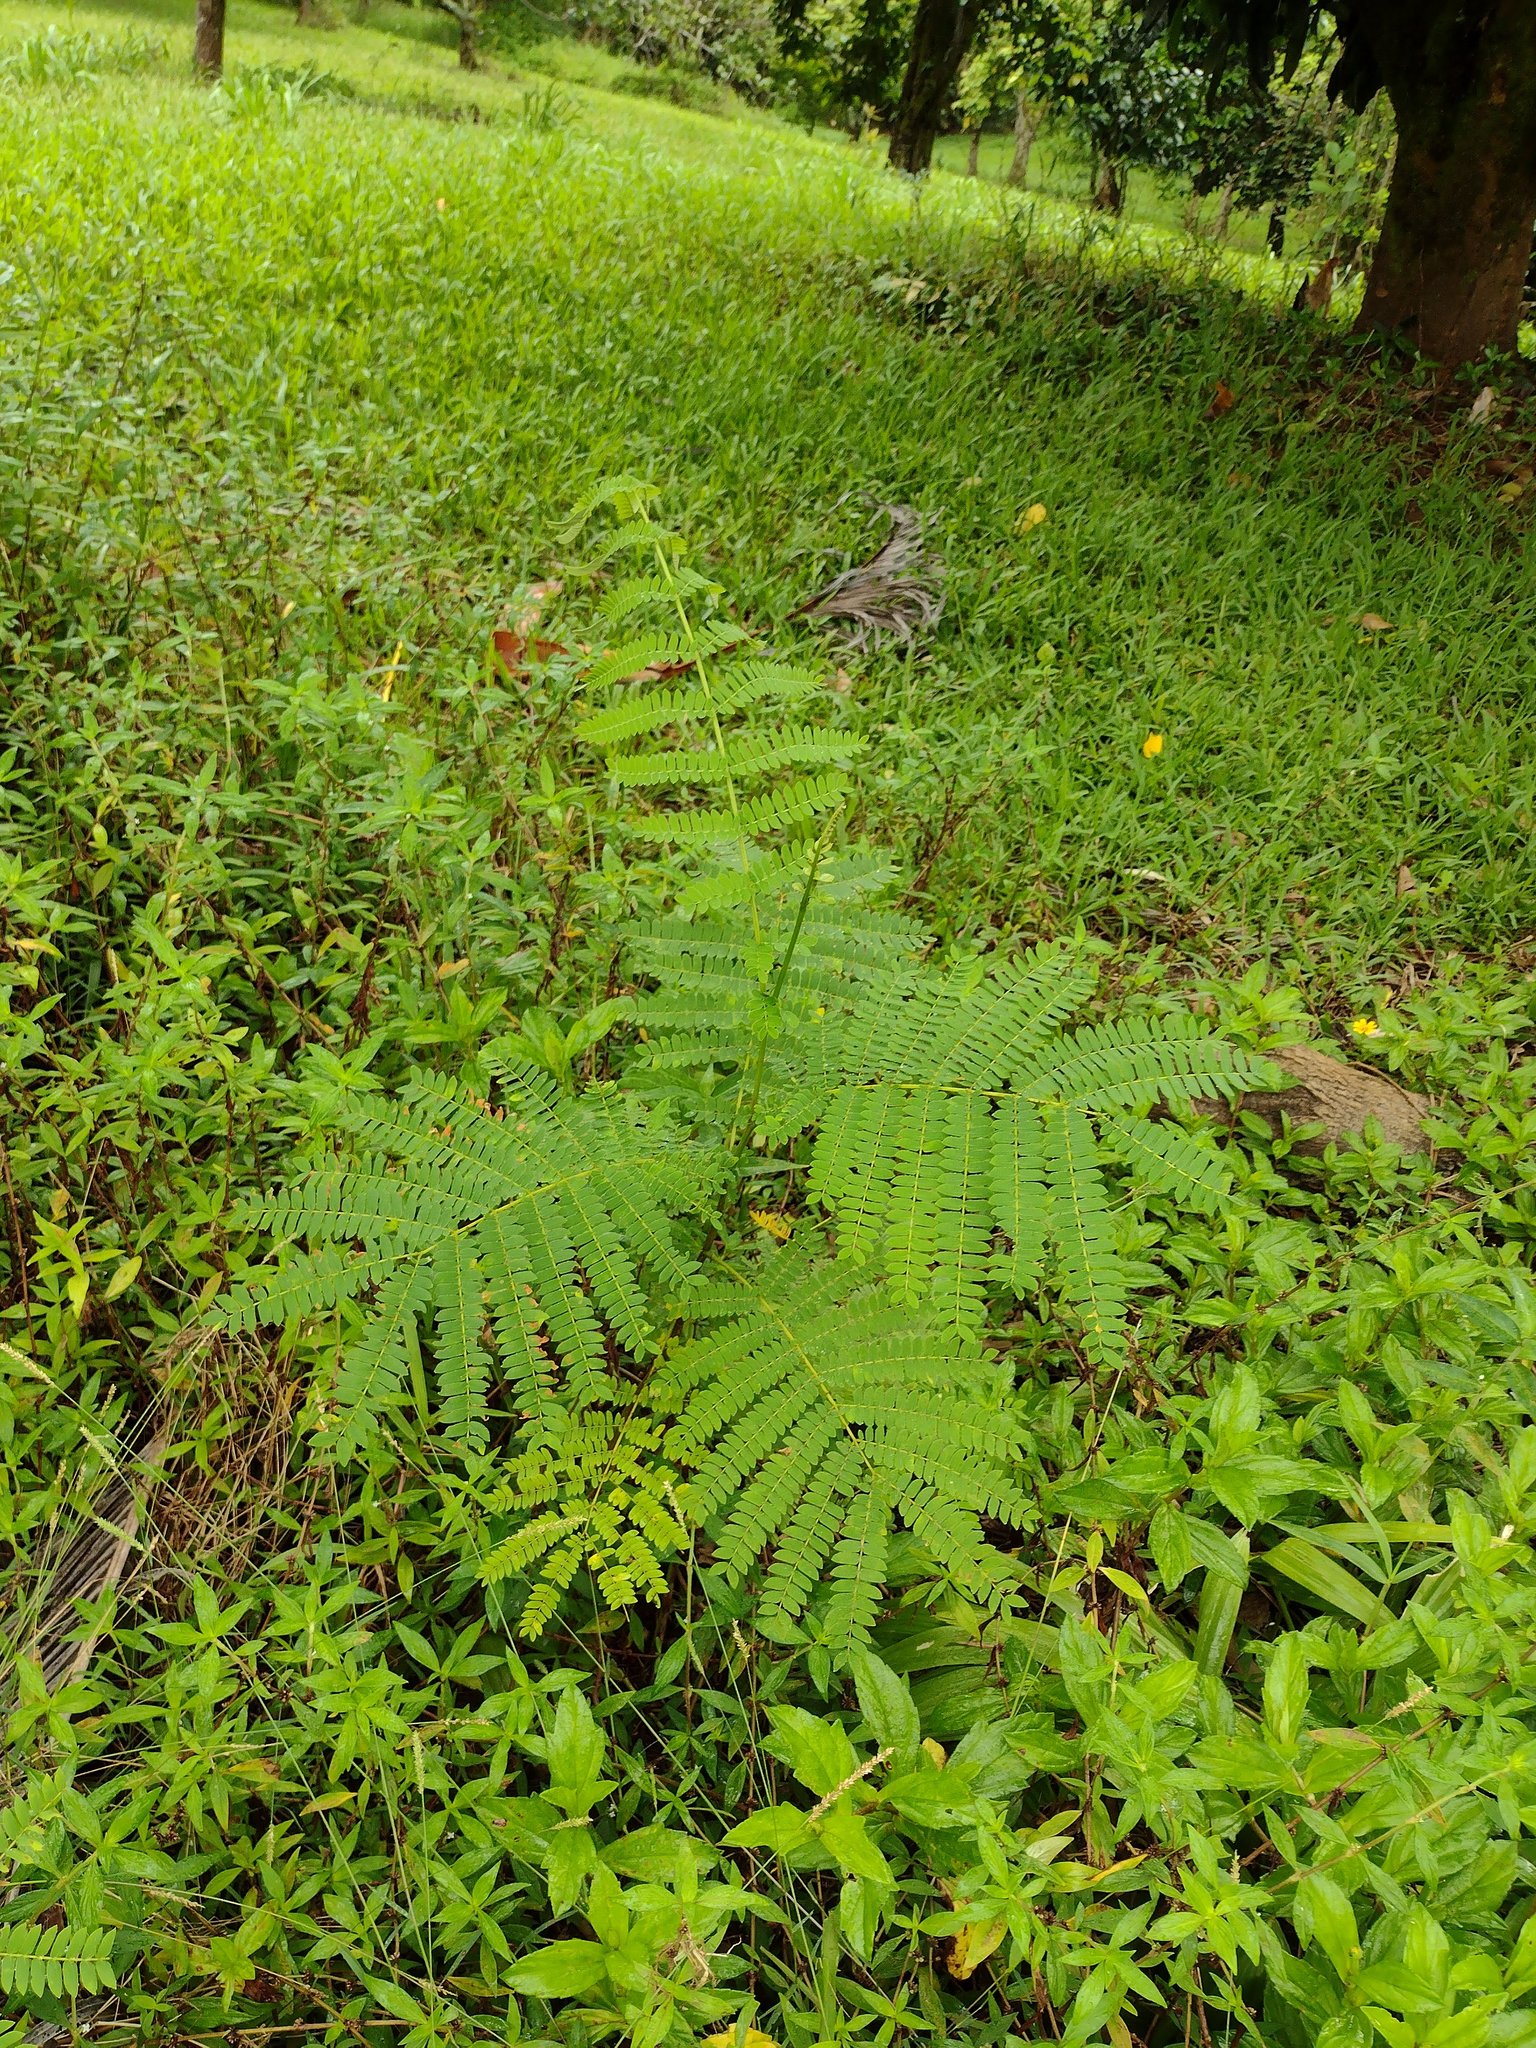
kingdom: Plantae
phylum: Tracheophyta
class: Magnoliopsida
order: Fabales
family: Fabaceae
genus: Falcataria
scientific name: Falcataria falcata
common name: Moluccan albizia
